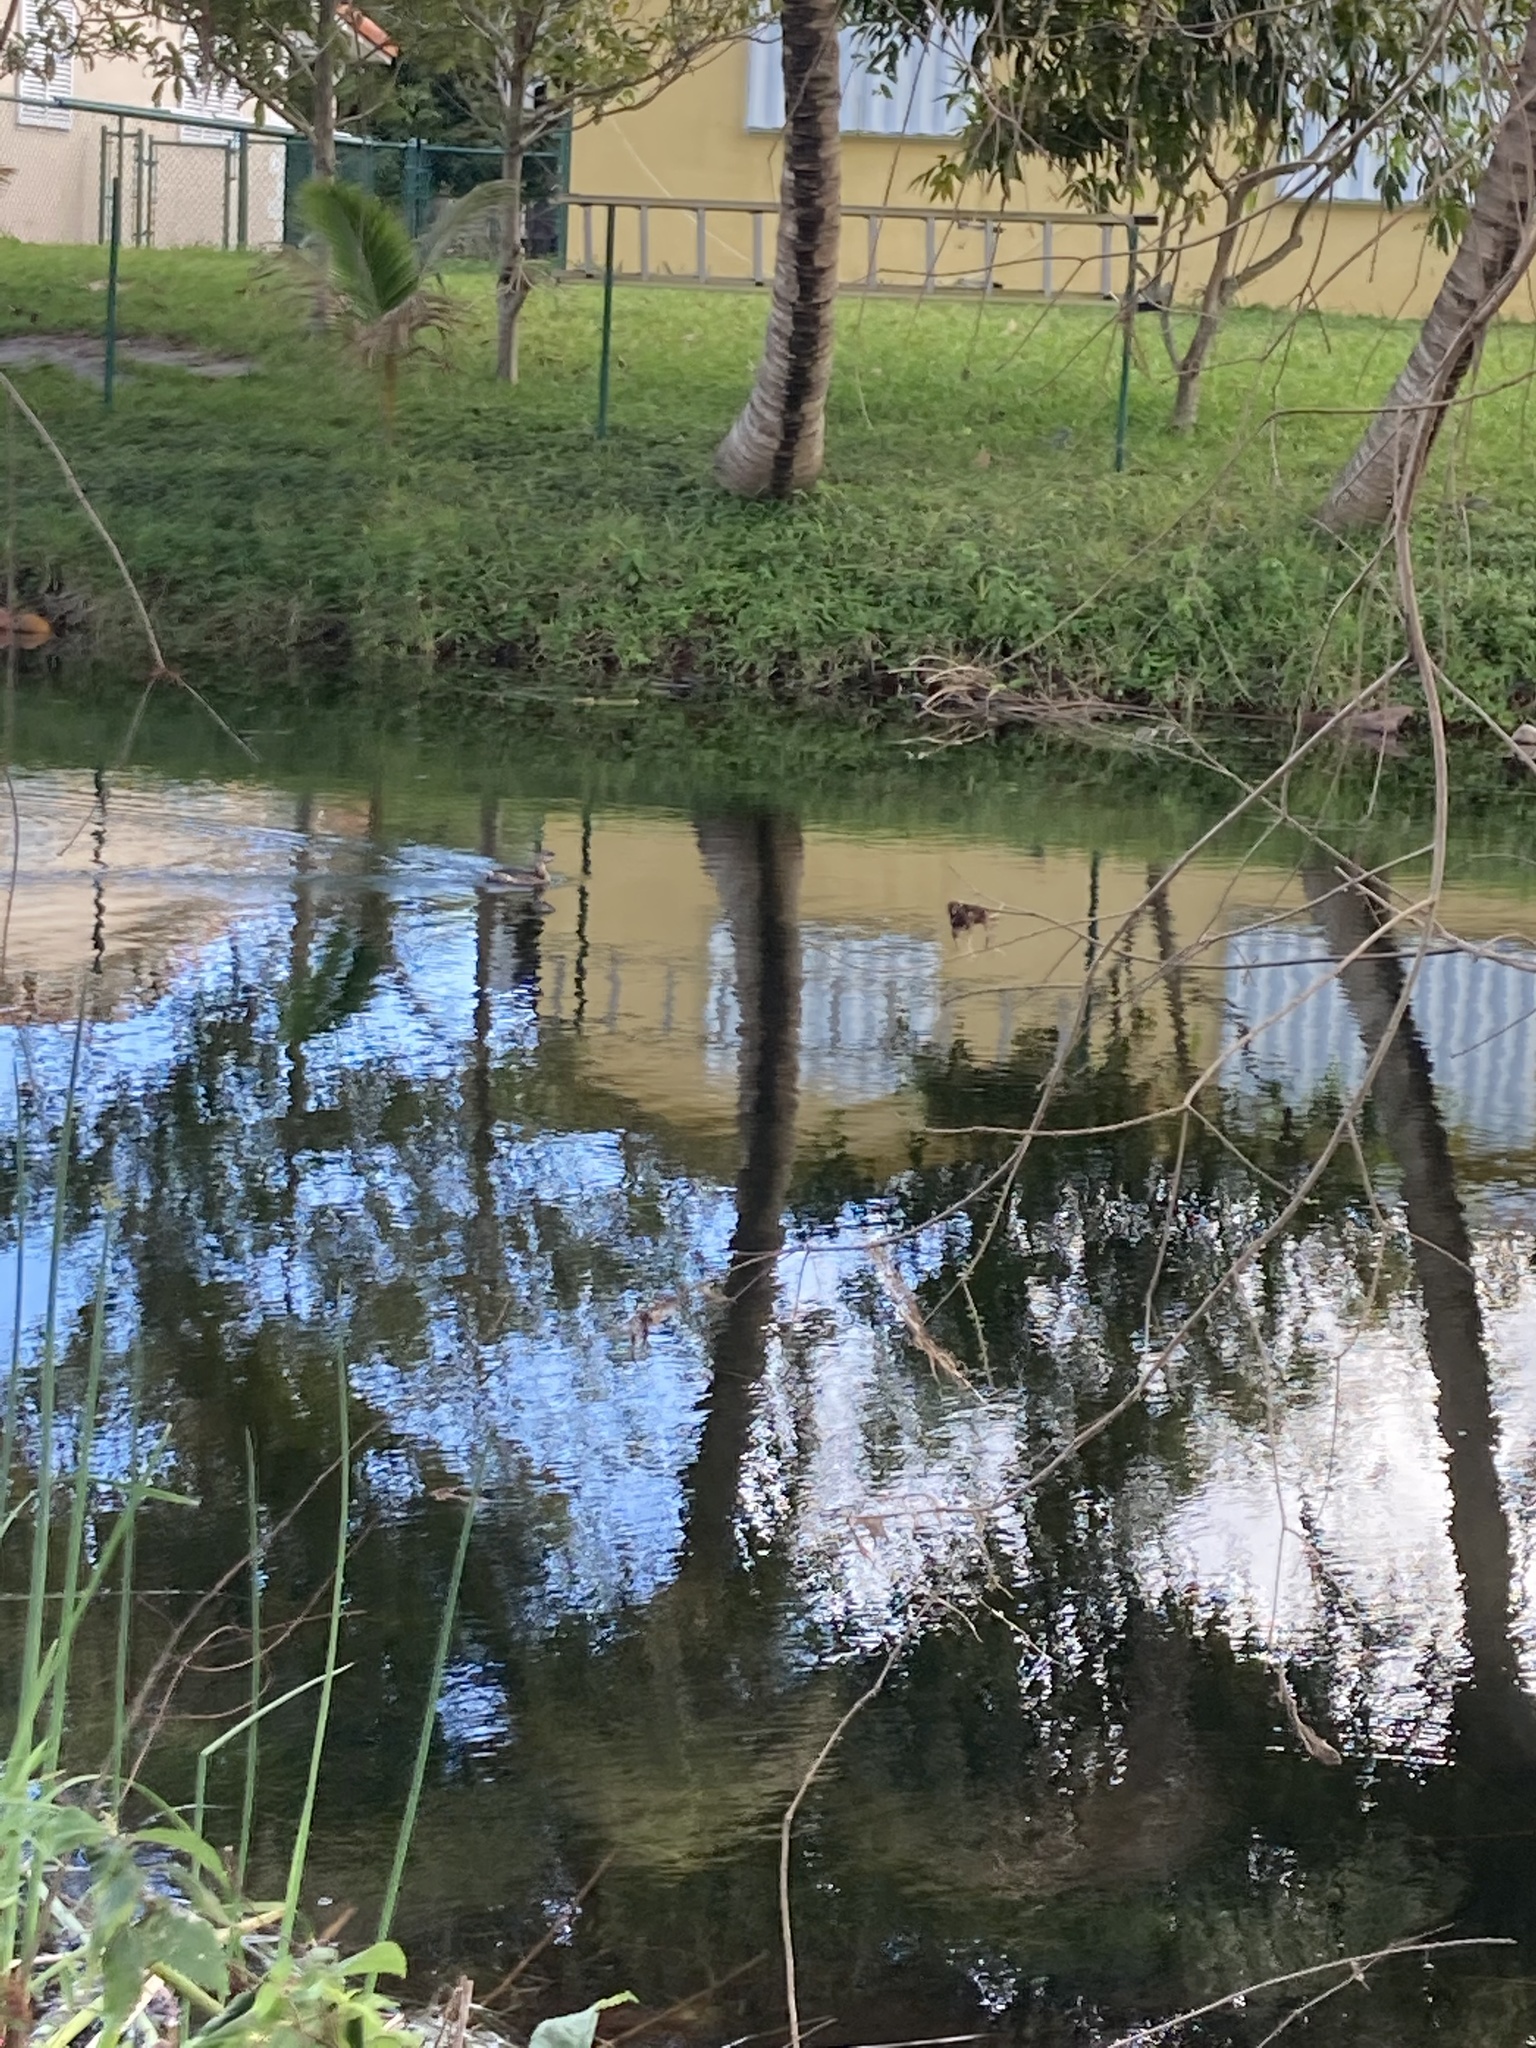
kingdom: Animalia
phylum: Chordata
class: Aves
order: Podicipediformes
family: Podicipedidae
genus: Podilymbus
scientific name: Podilymbus podiceps
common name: Pied-billed grebe
